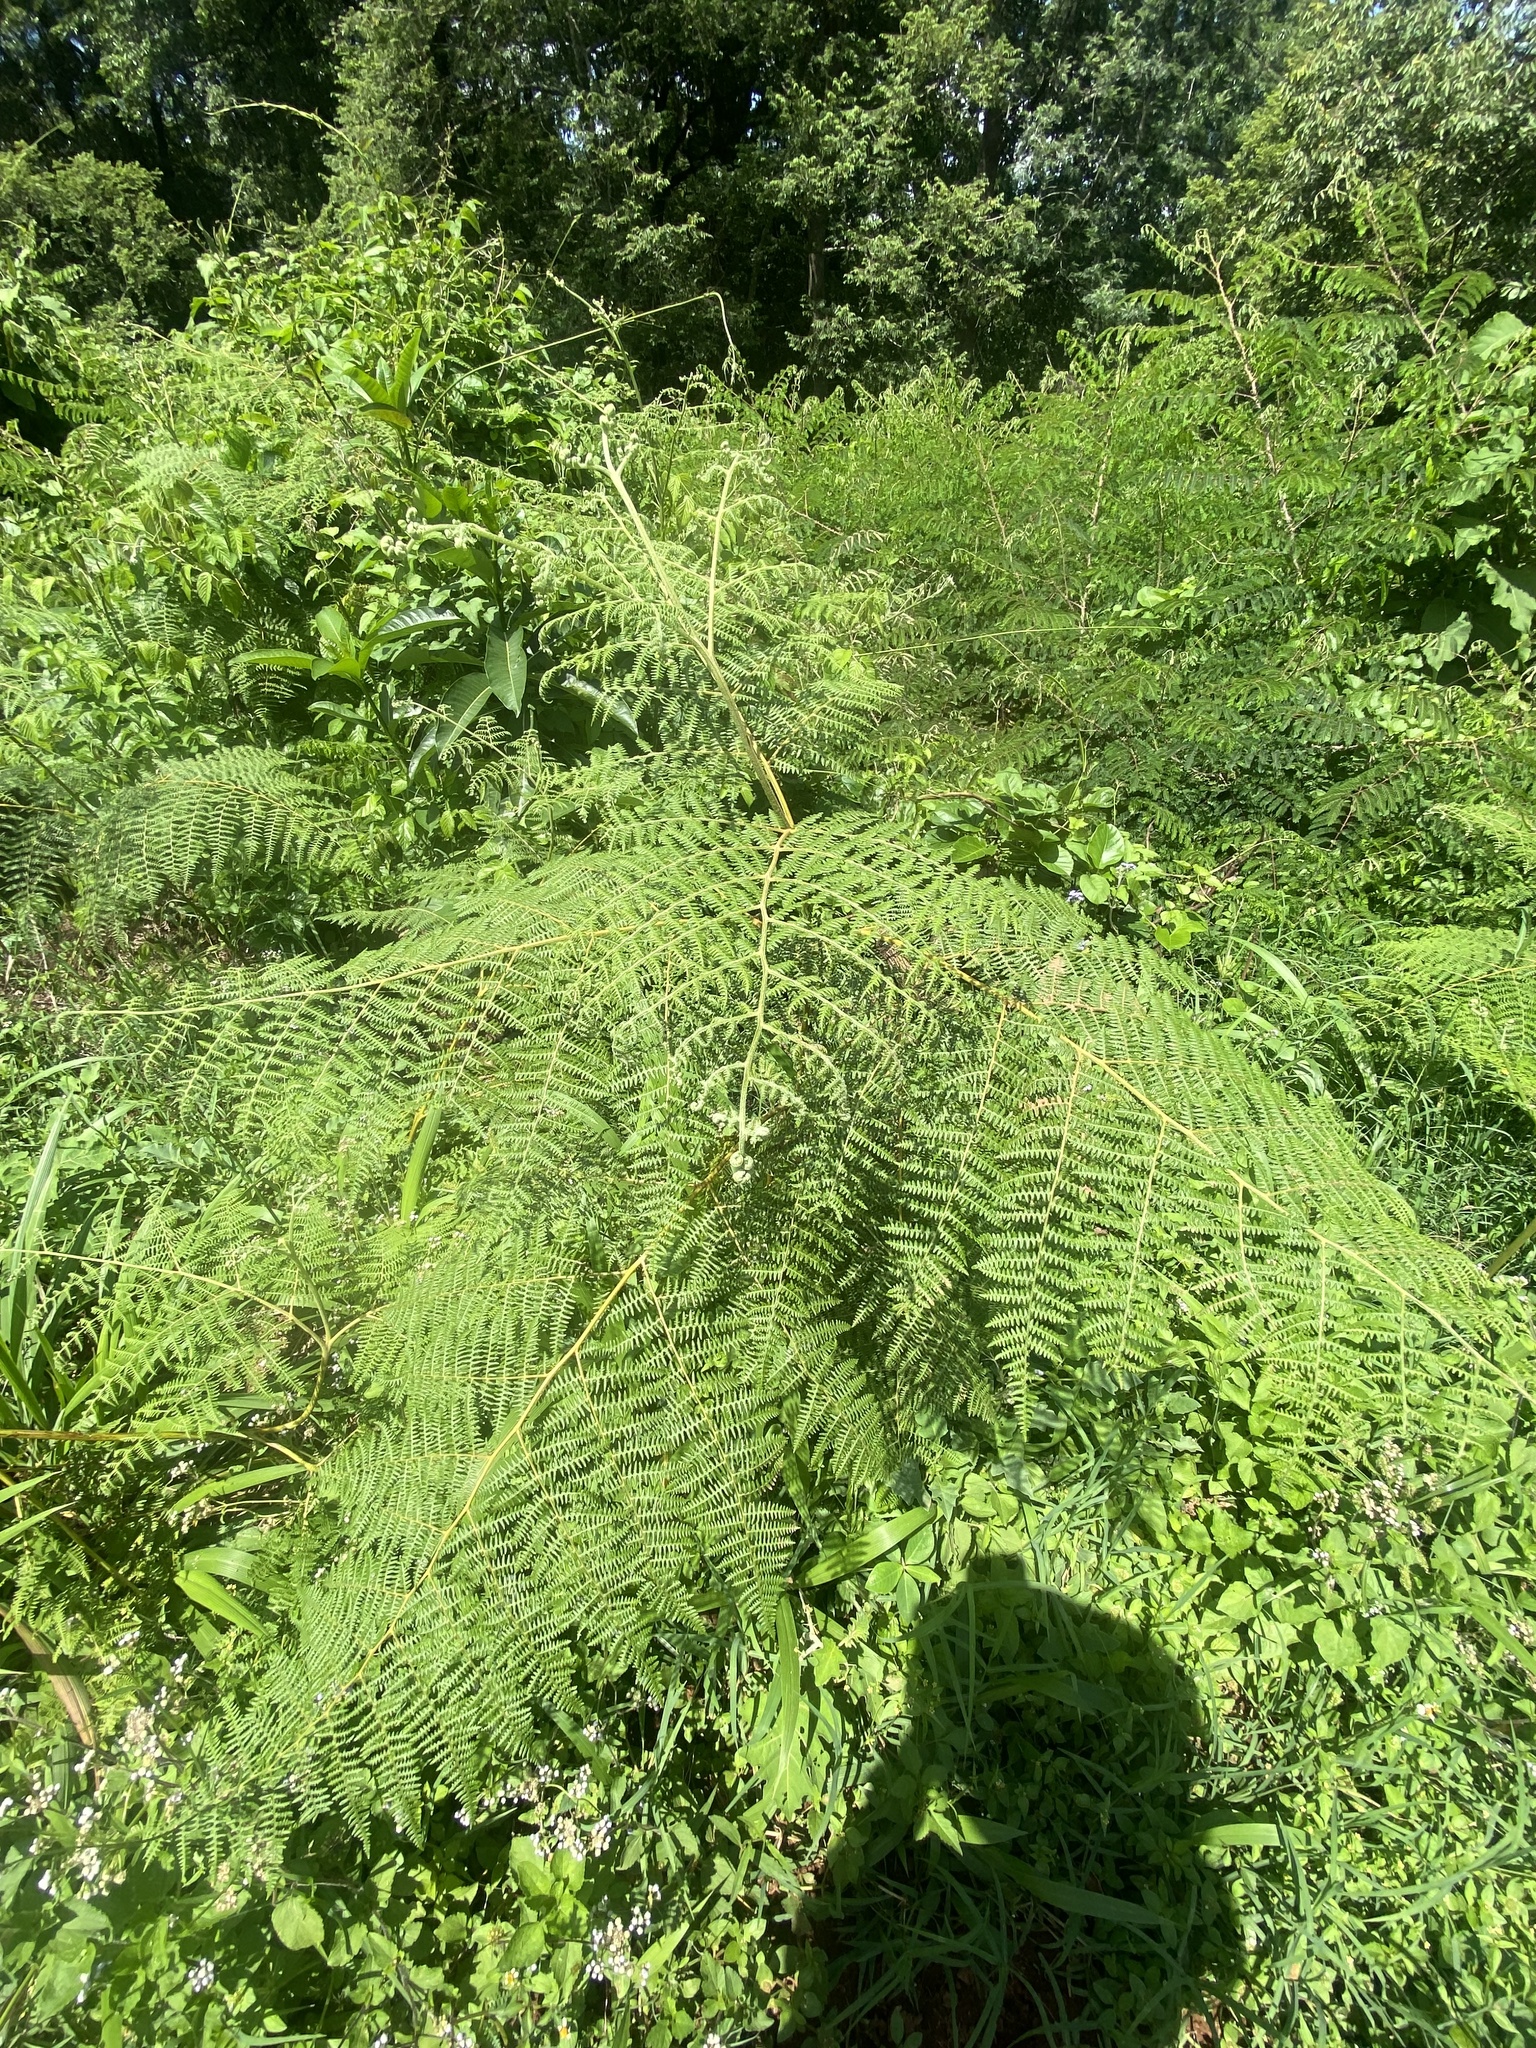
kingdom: Plantae
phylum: Tracheophyta
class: Polypodiopsida
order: Polypodiales
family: Dennstaedtiaceae
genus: Pteridium
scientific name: Pteridium aquilinum
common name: Bracken
